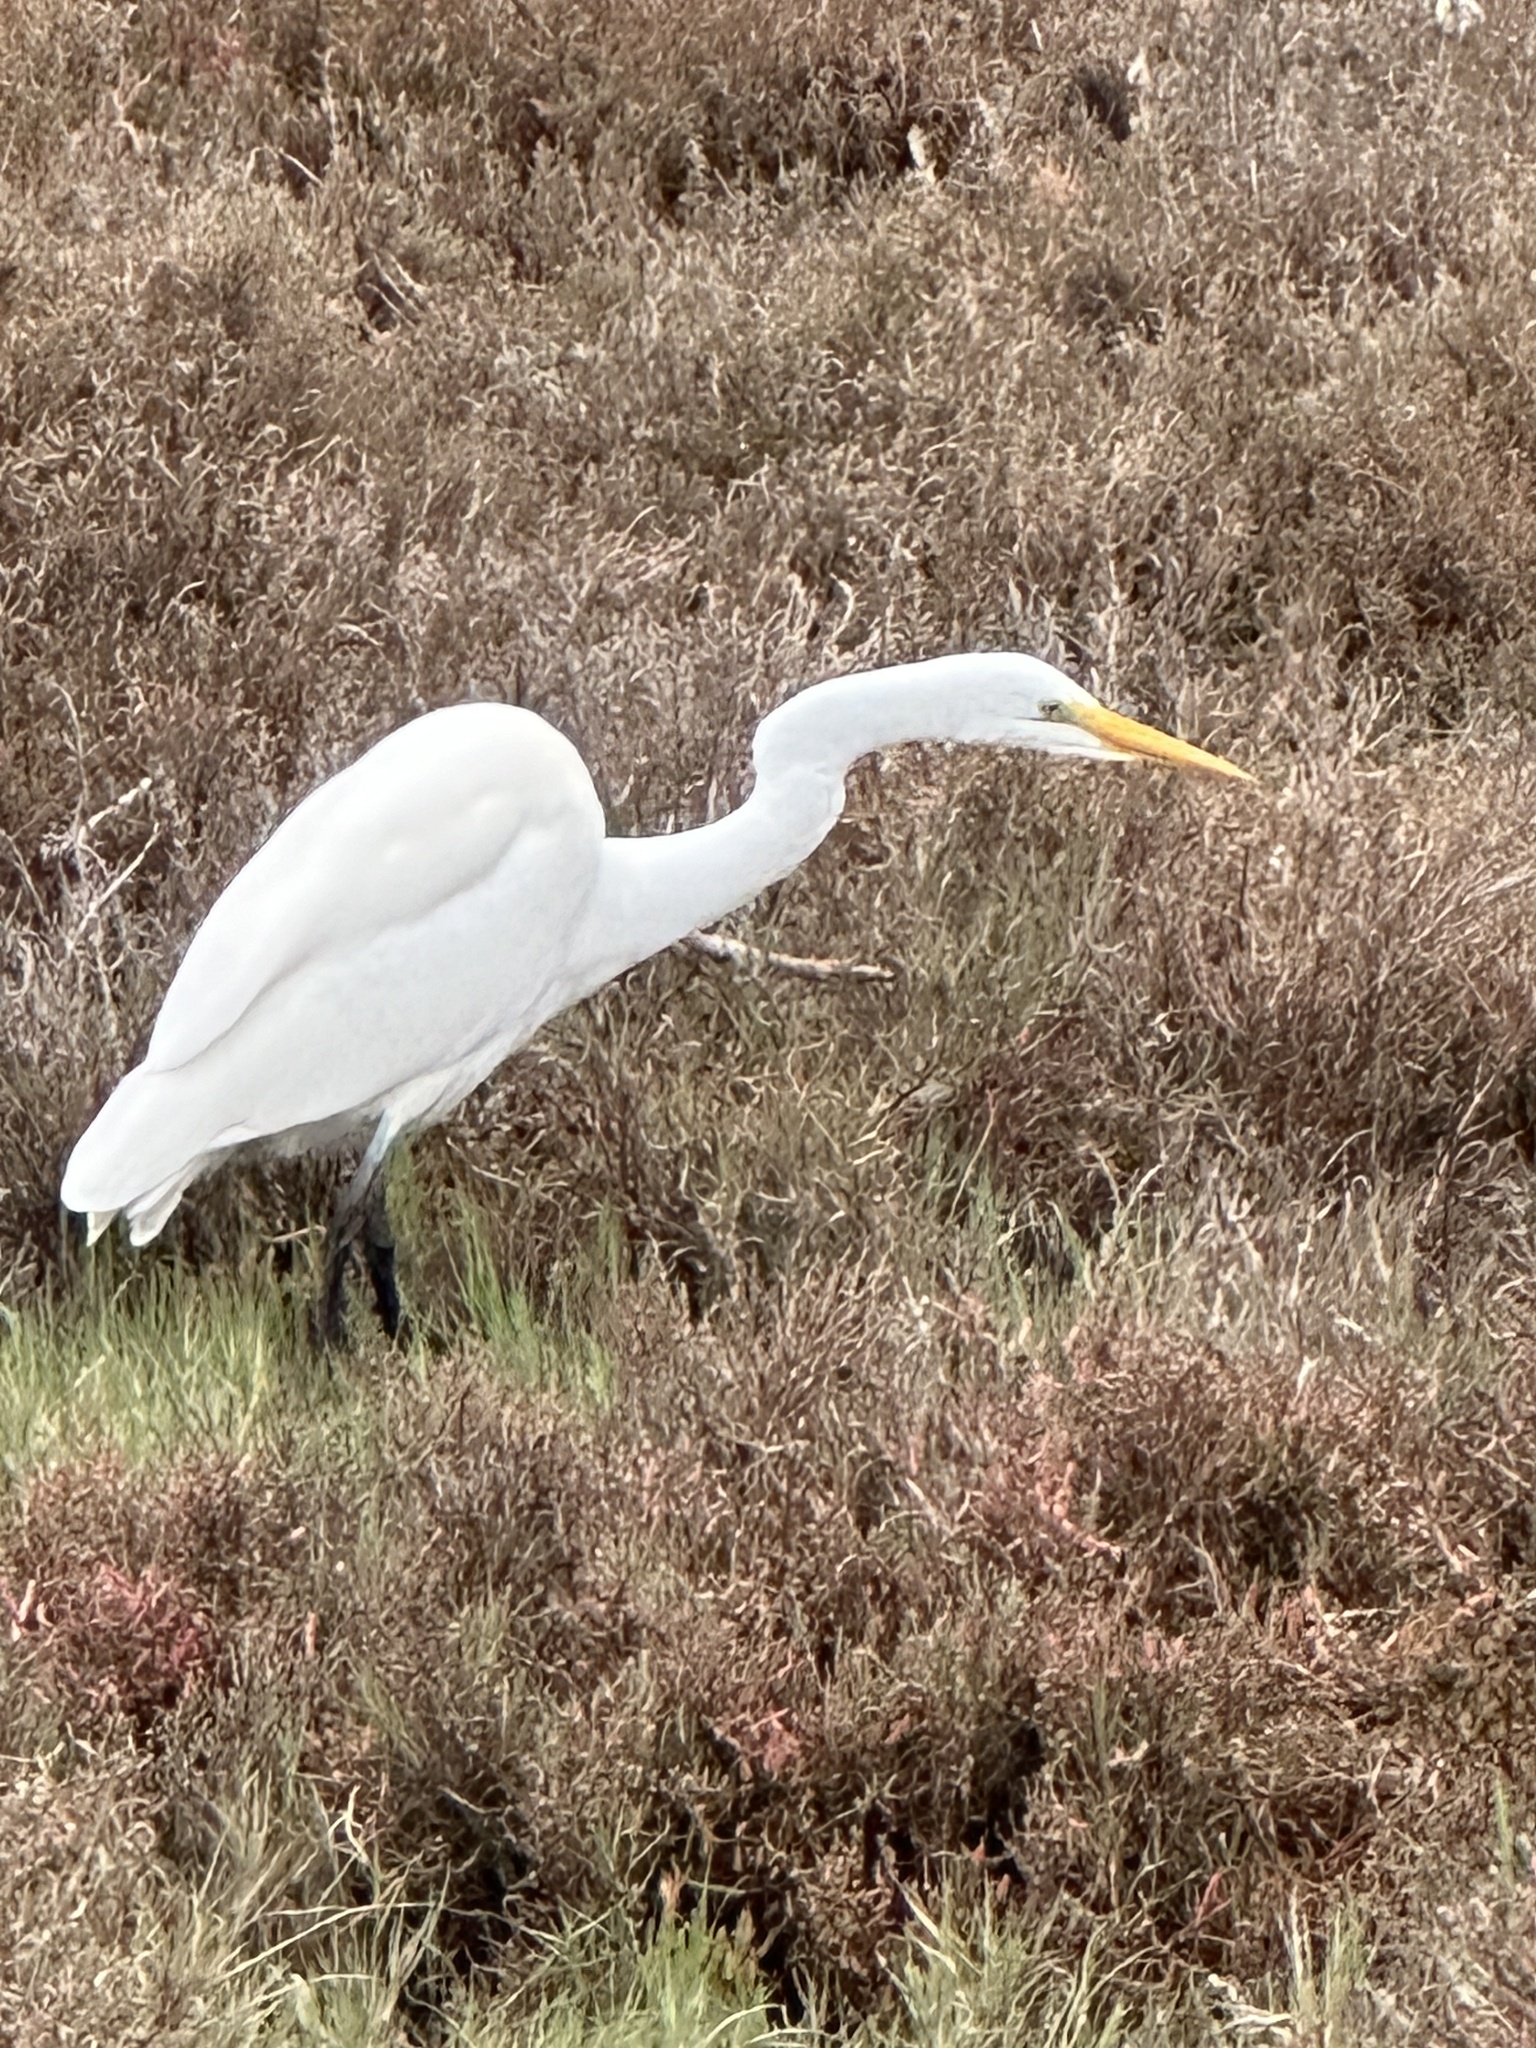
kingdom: Animalia
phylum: Chordata
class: Aves
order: Pelecaniformes
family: Ardeidae
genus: Ardea
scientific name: Ardea alba
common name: Great egret
